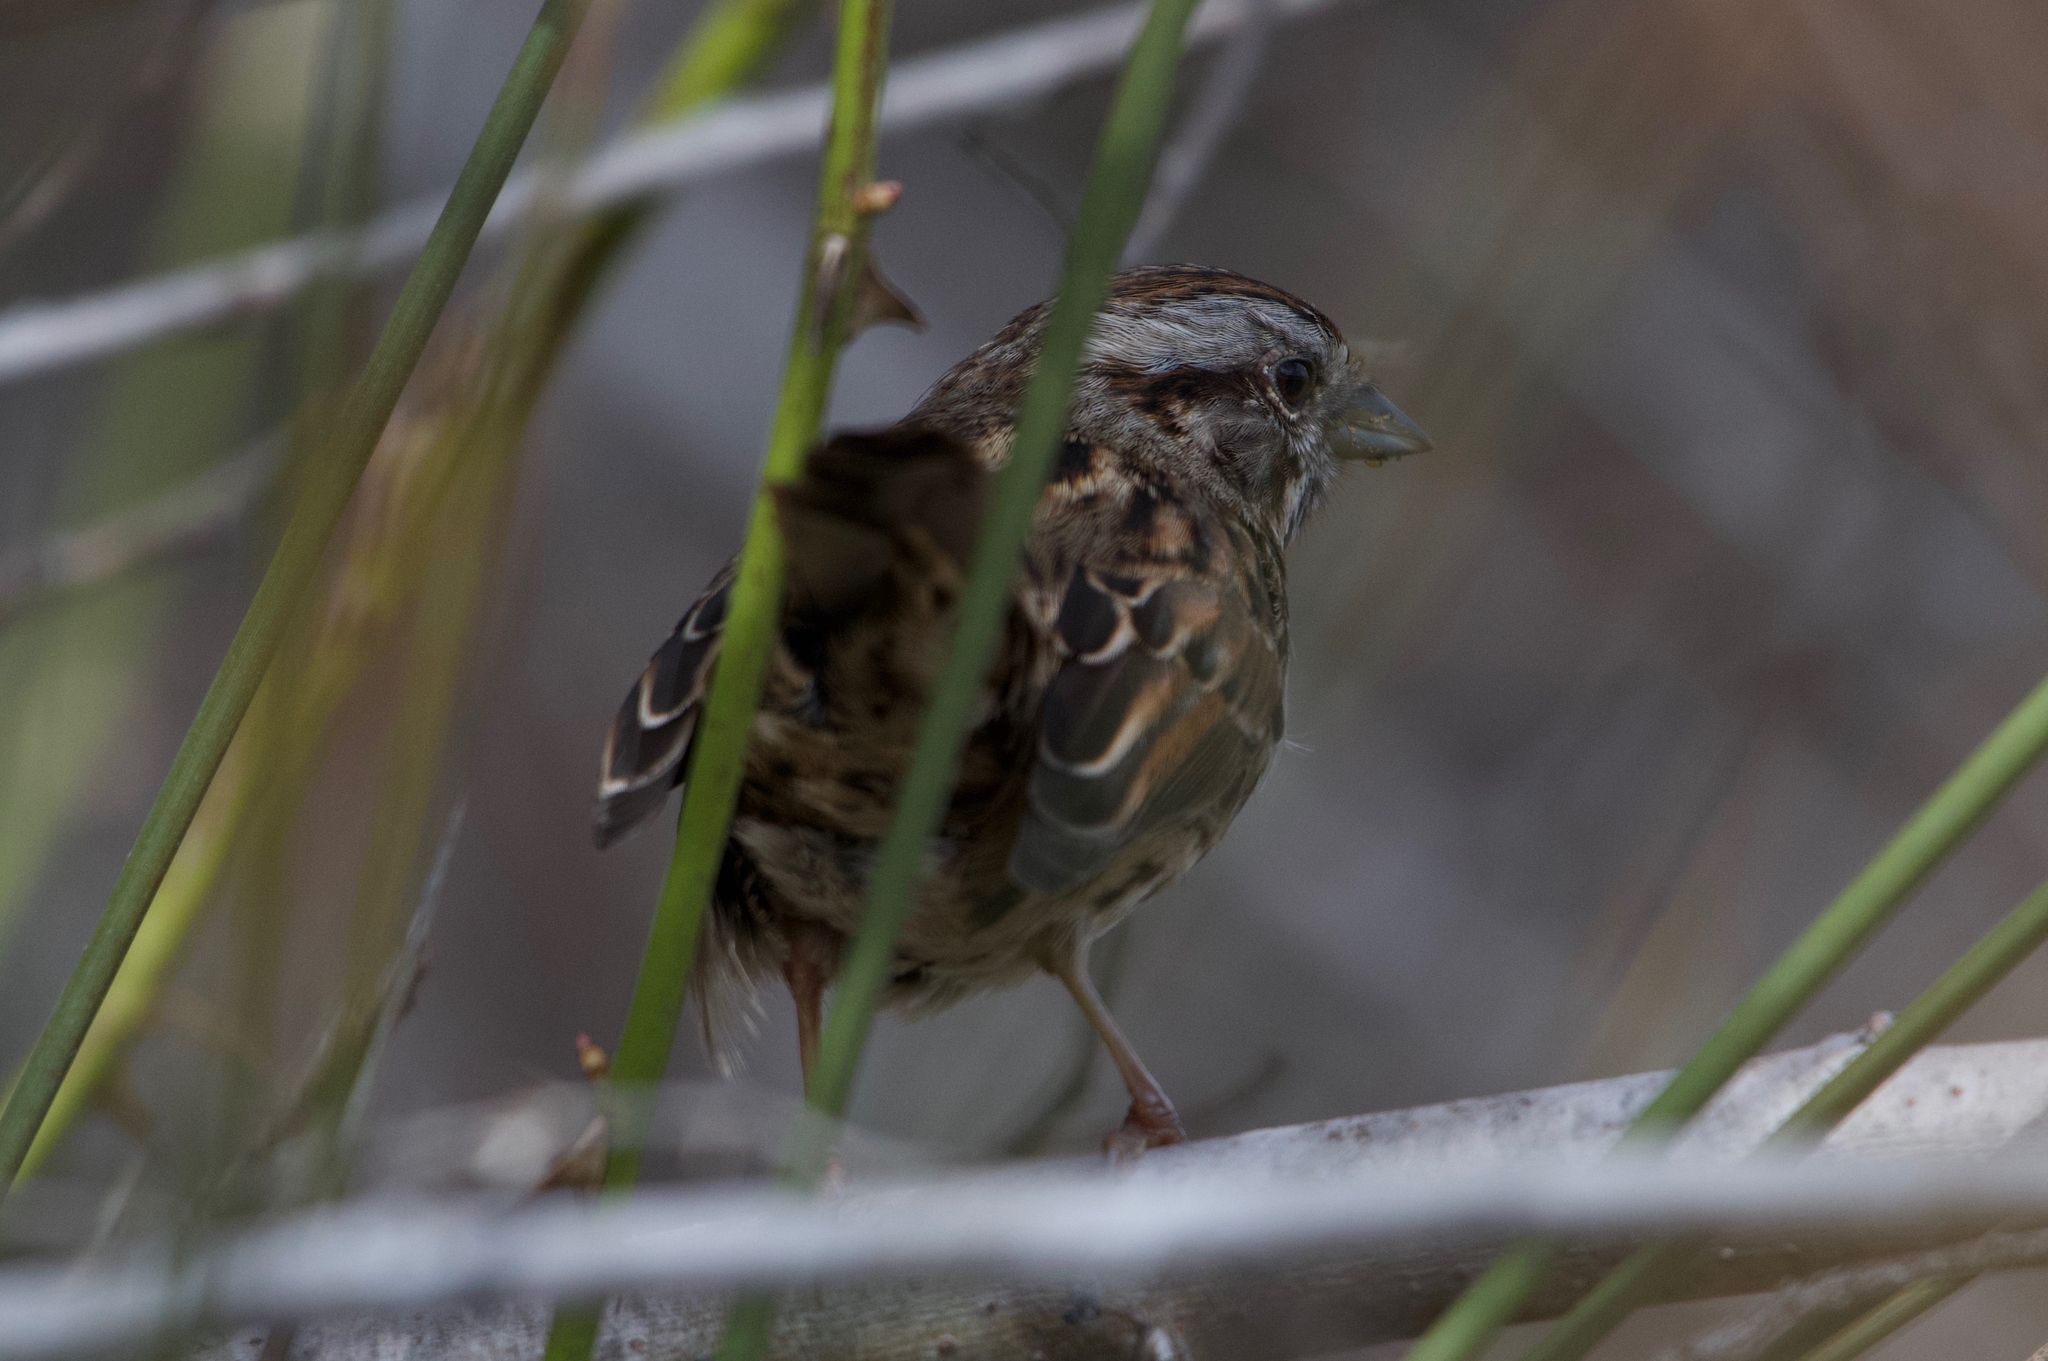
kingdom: Animalia
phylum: Chordata
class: Aves
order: Passeriformes
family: Passerellidae
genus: Melospiza
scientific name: Melospiza melodia
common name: Song sparrow
